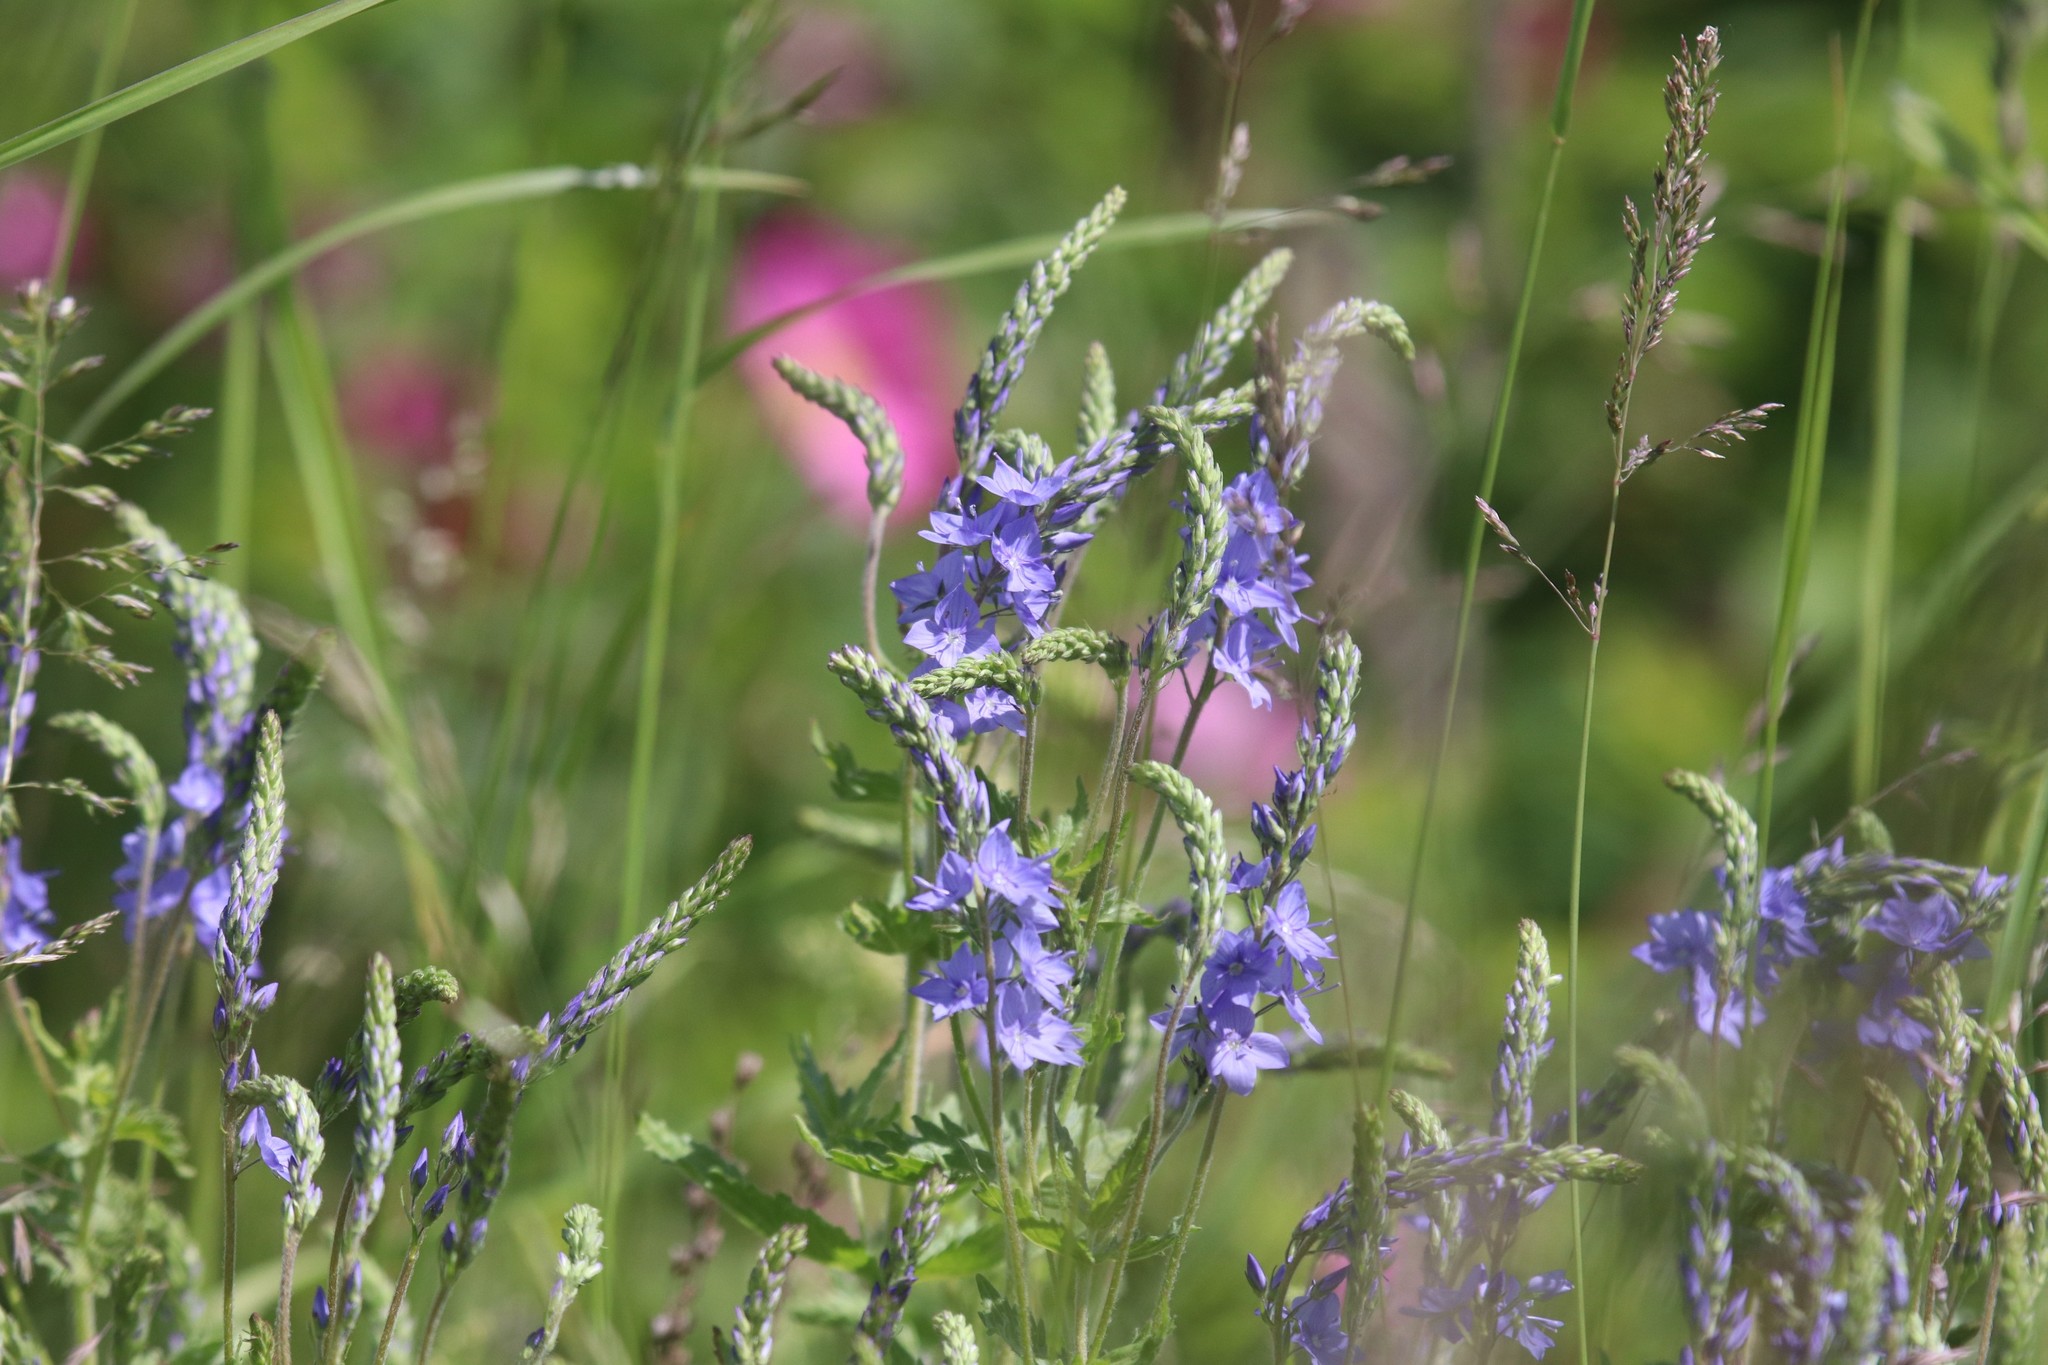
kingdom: Plantae
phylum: Tracheophyta
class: Magnoliopsida
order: Lamiales
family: Plantaginaceae
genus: Veronica
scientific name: Veronica teucrium
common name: Large speedwell
